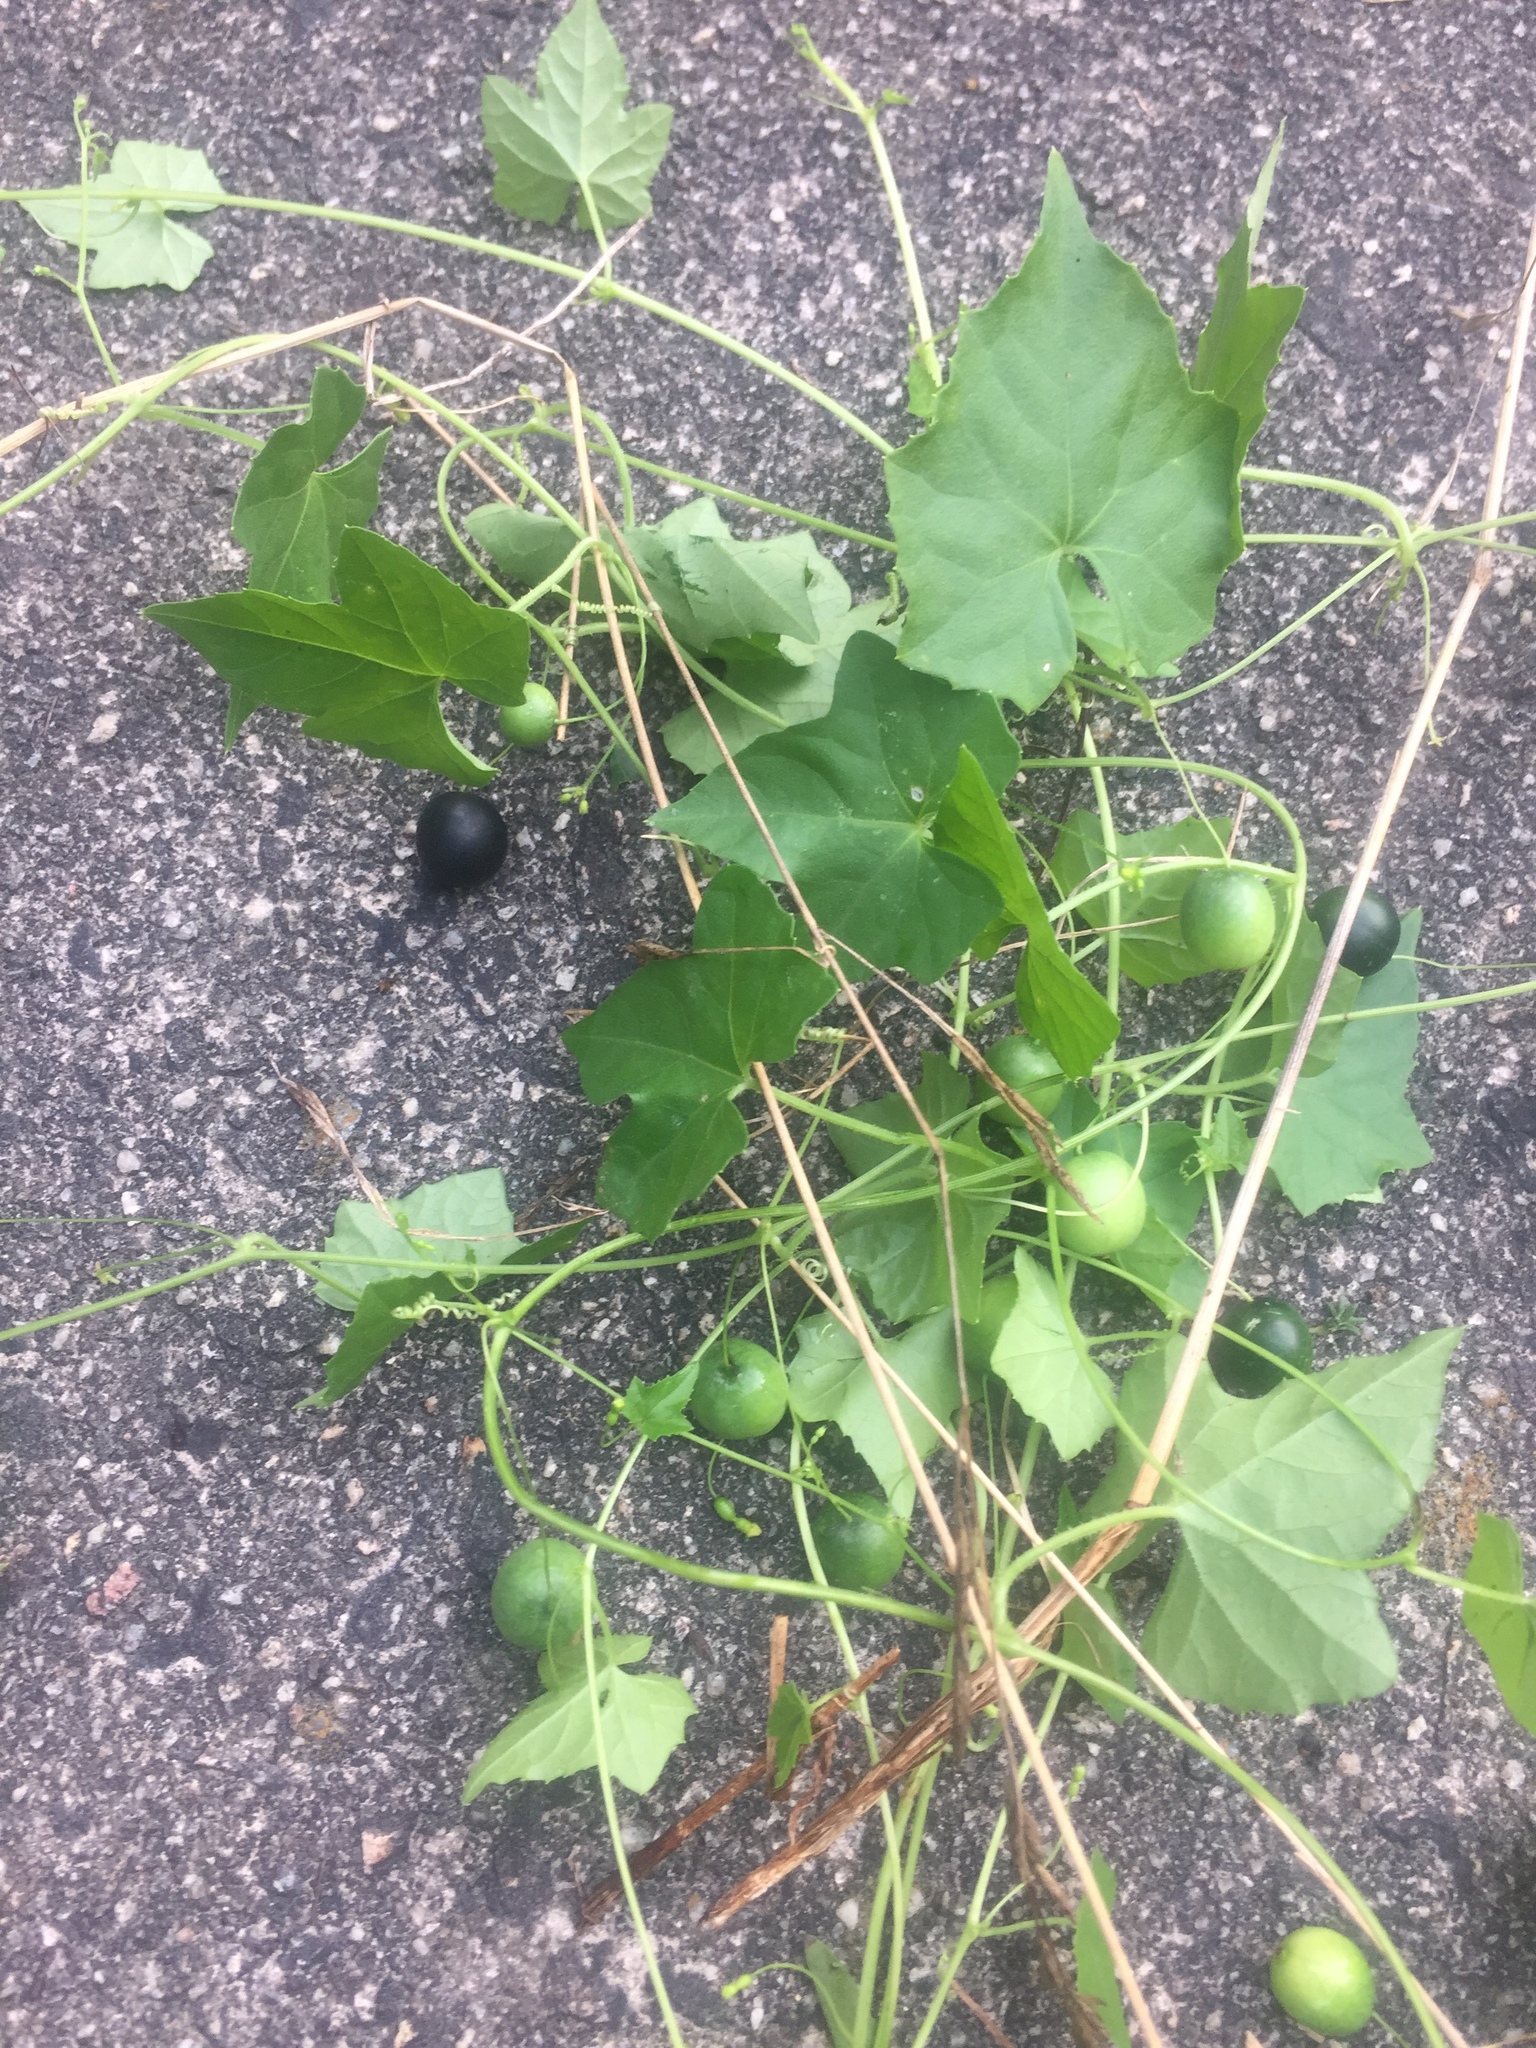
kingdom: Plantae
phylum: Tracheophyta
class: Magnoliopsida
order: Cucurbitales
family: Cucurbitaceae
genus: Melothria
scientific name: Melothria pendula
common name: Creeping-cucumber
